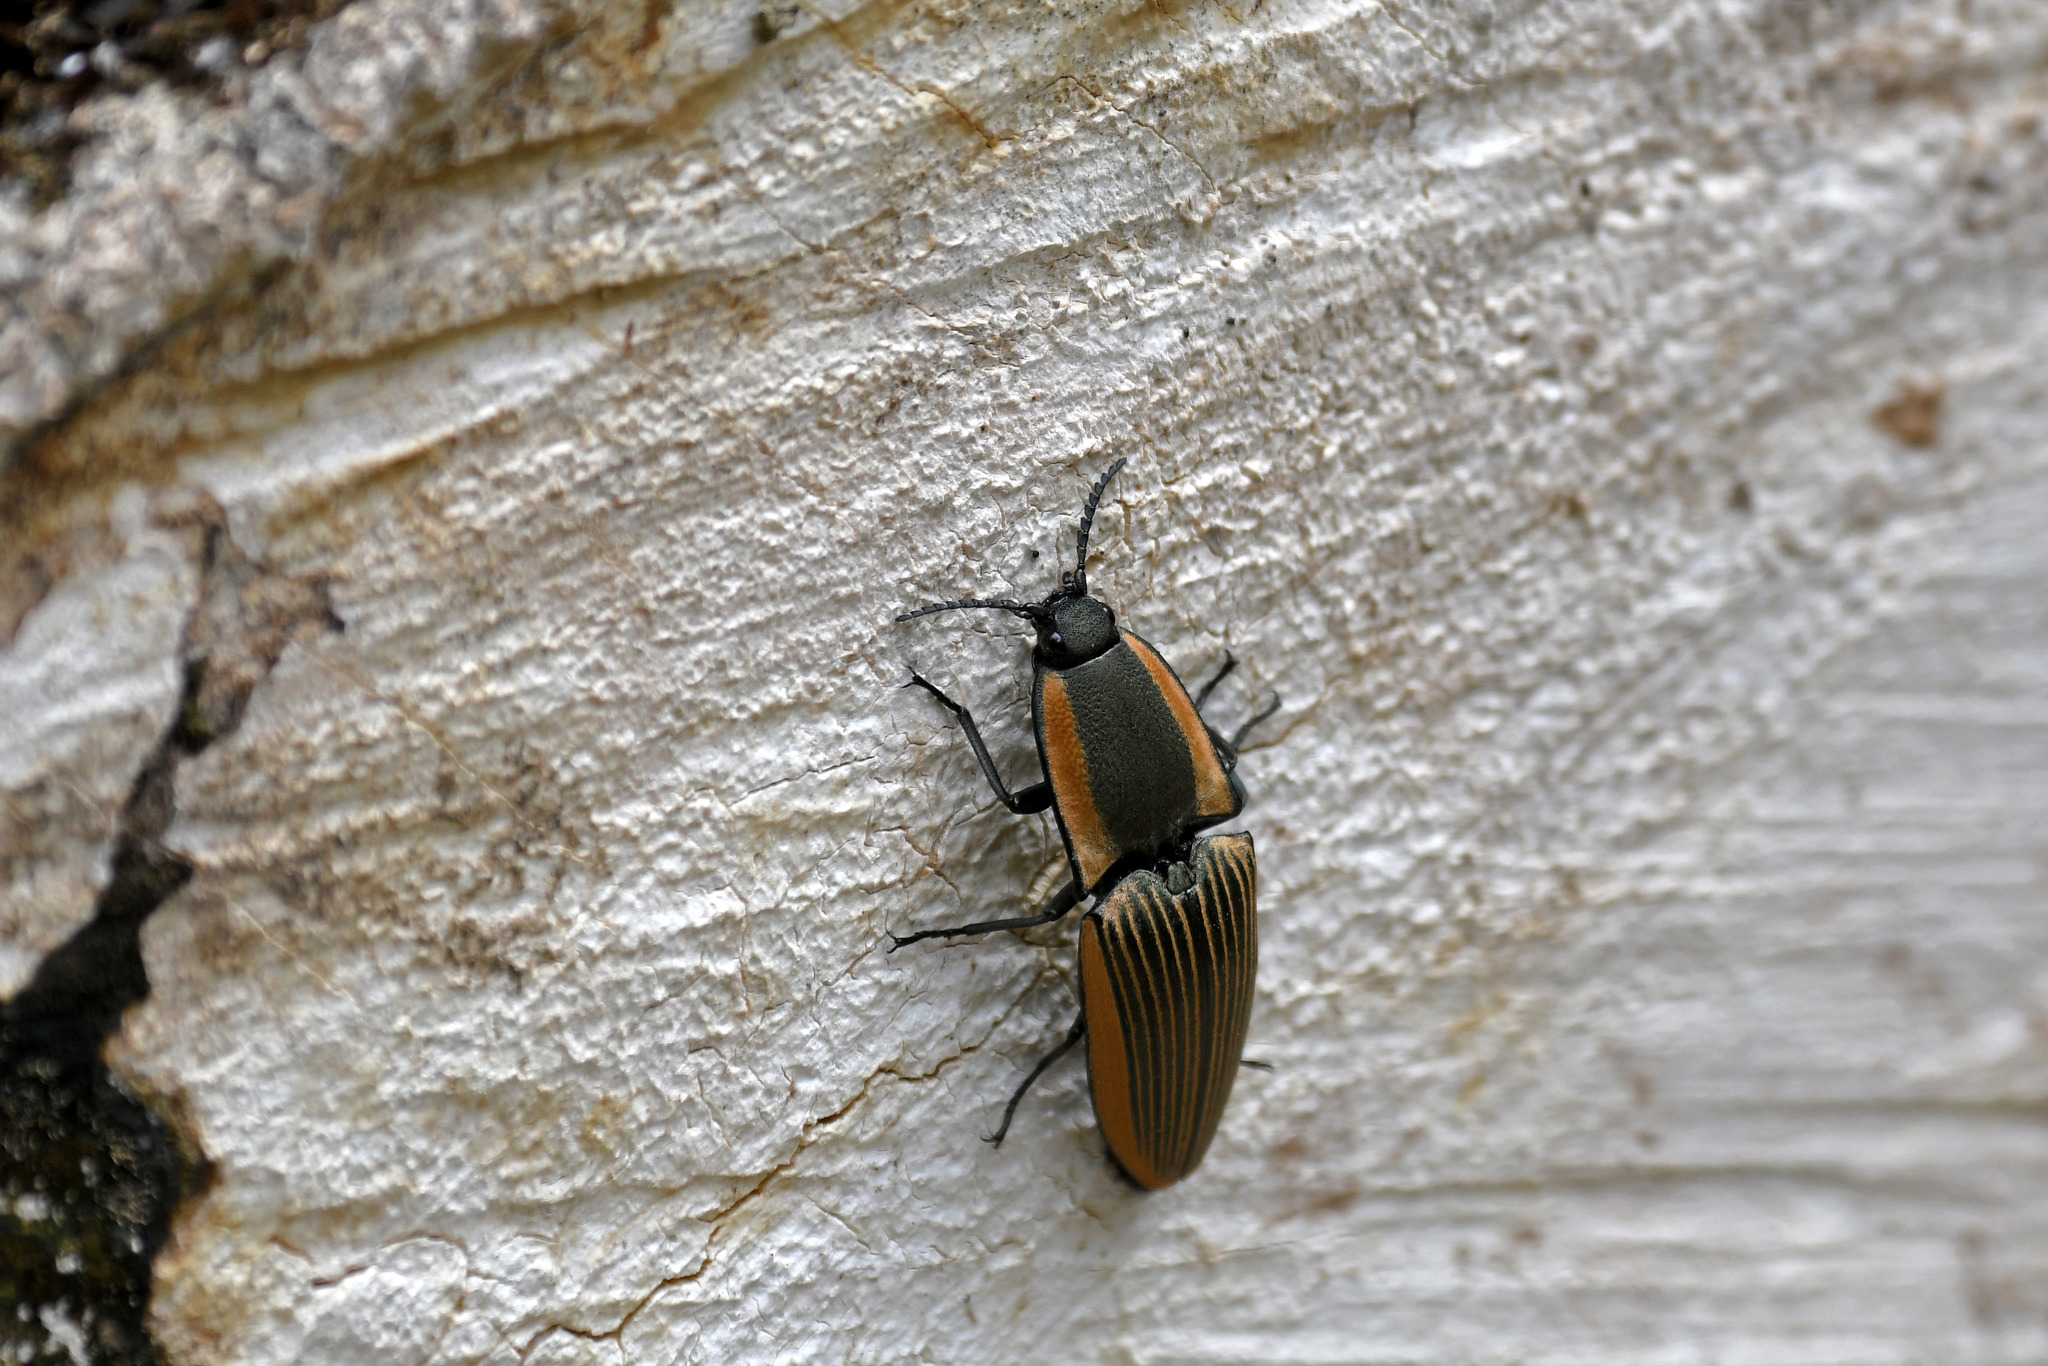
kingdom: Animalia
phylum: Arthropoda
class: Insecta
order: Coleoptera
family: Elateridae
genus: Chalcolepidius
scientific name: Chalcolepidius
